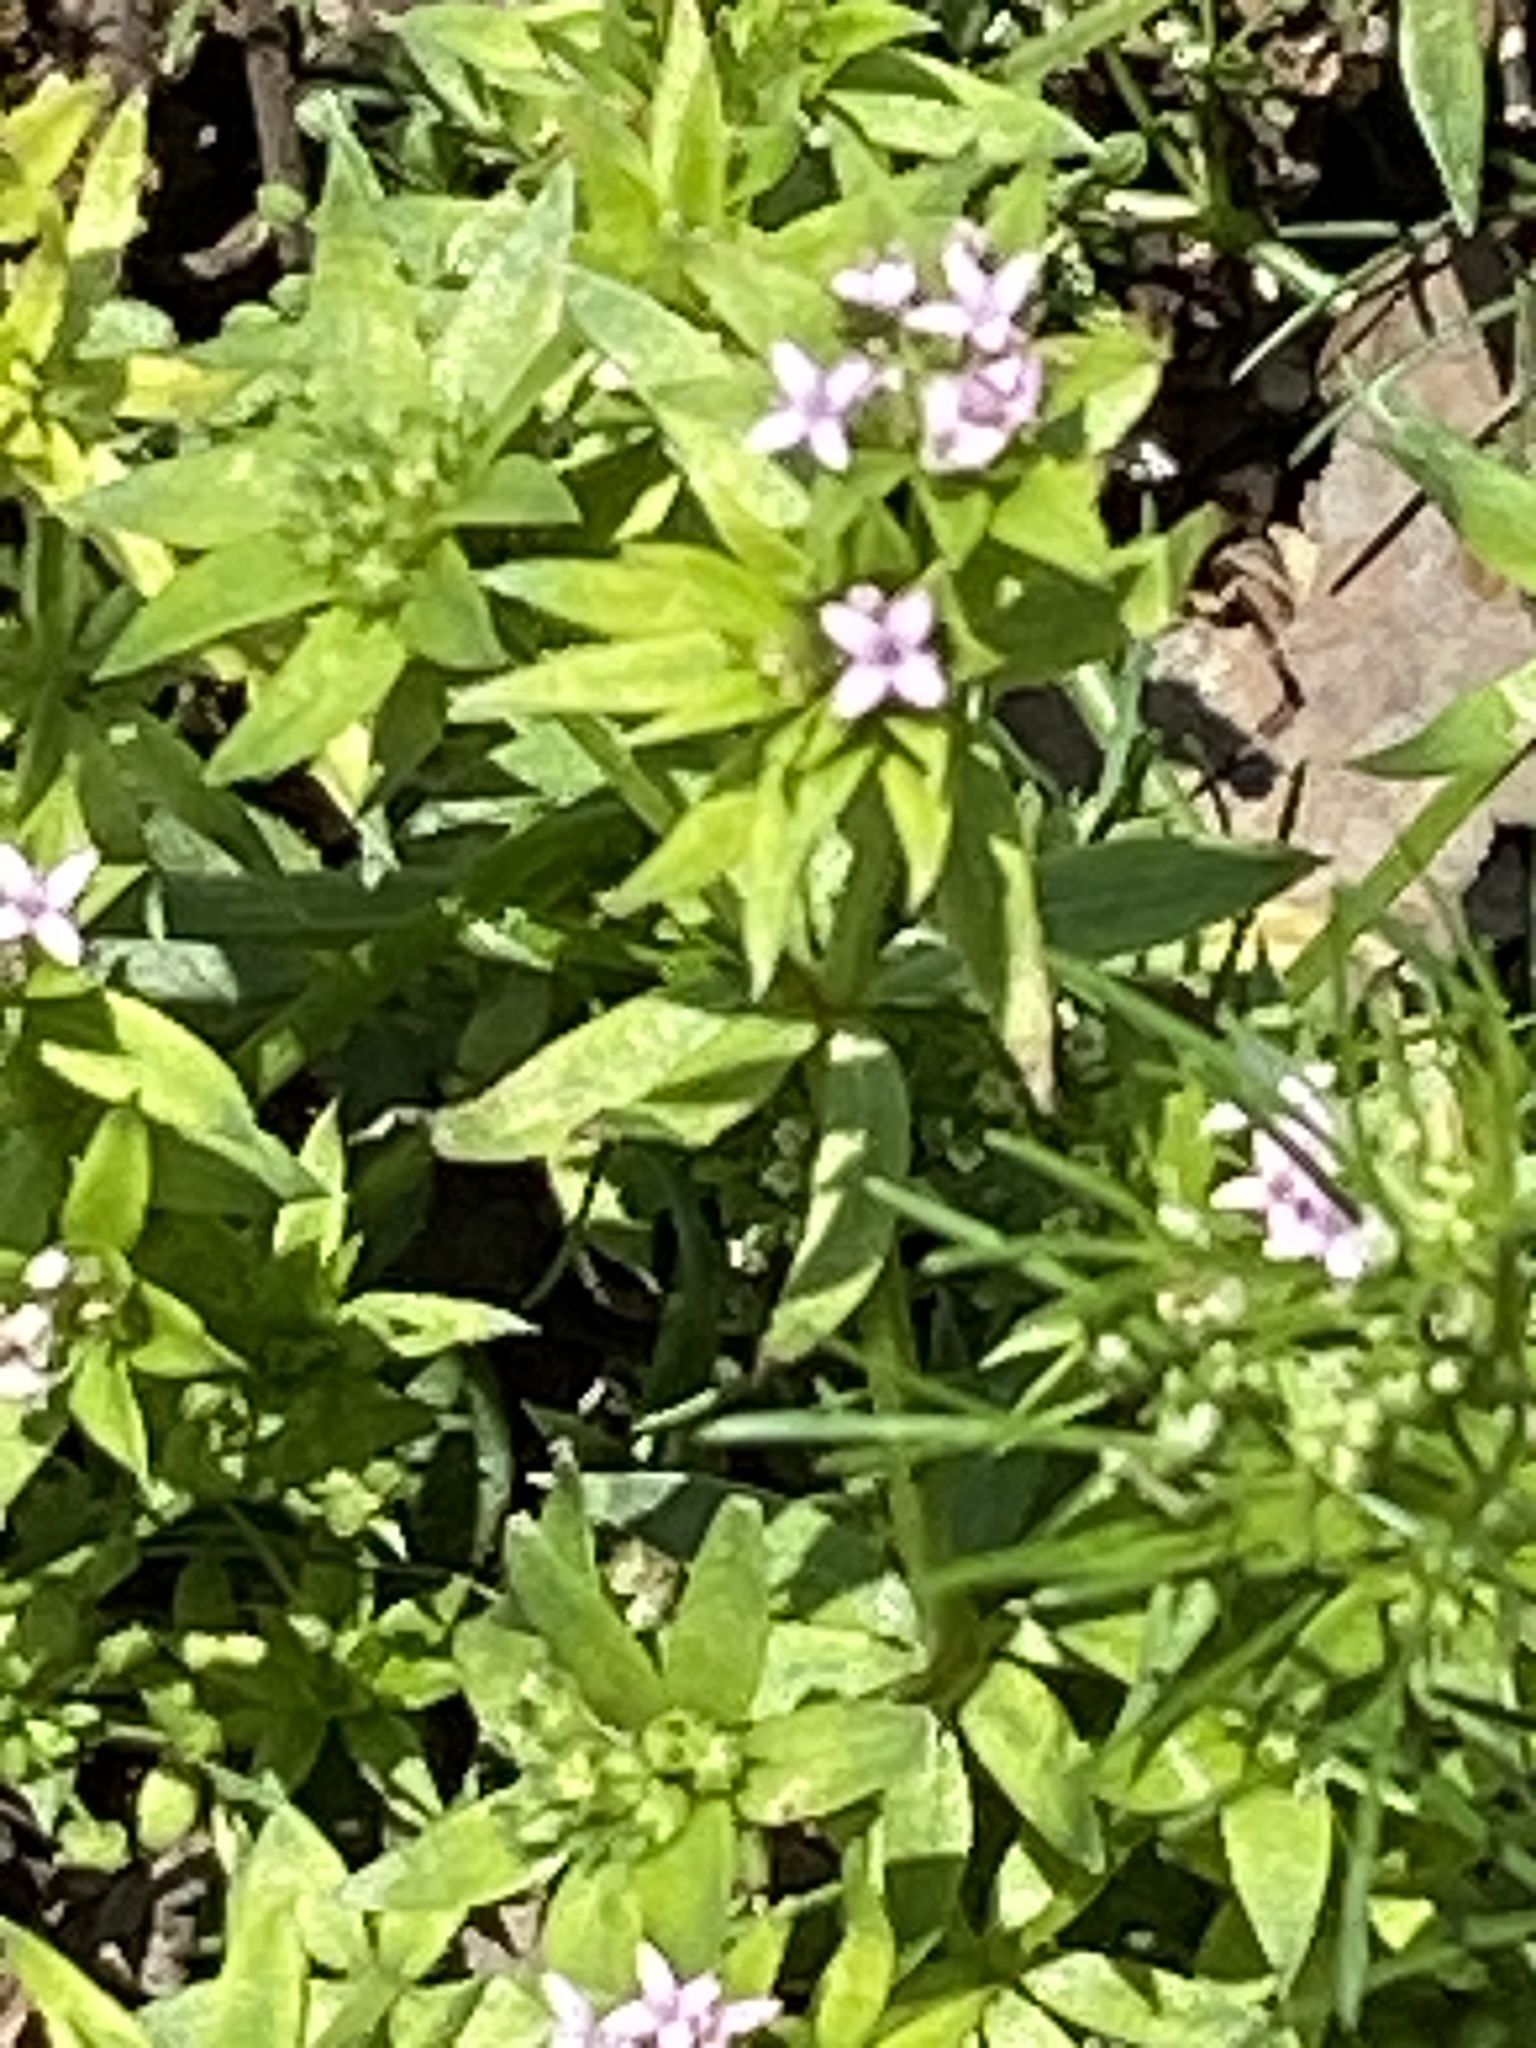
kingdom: Plantae
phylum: Tracheophyta
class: Magnoliopsida
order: Gentianales
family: Rubiaceae
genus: Sherardia
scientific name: Sherardia arvensis
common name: Field madder
